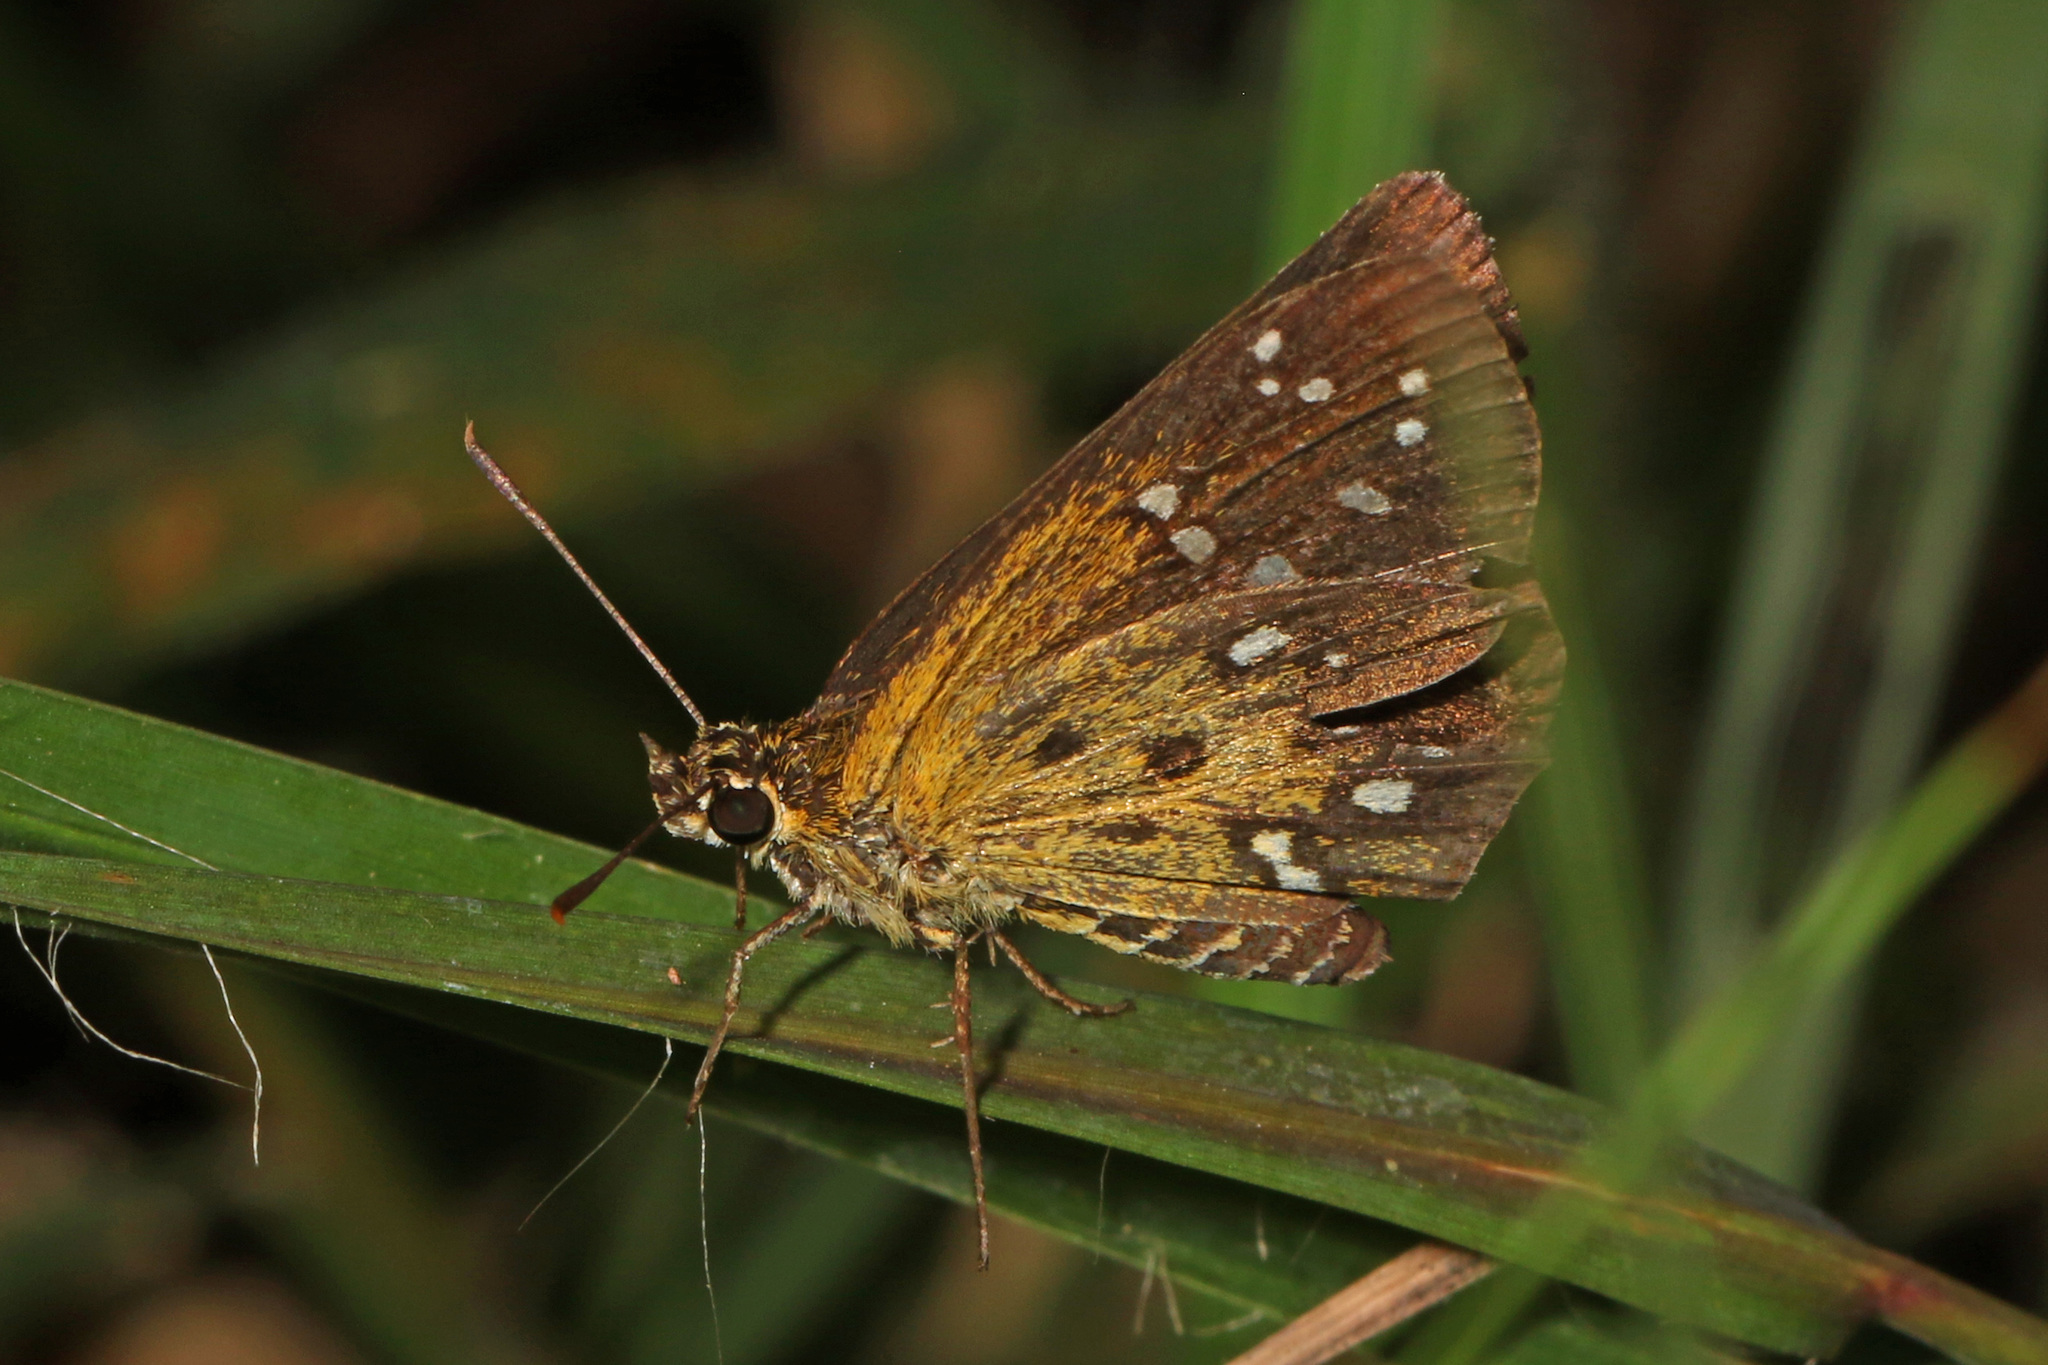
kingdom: Animalia
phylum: Arthropoda
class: Insecta
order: Lepidoptera
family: Hesperiidae
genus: Dotta
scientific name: Dotta
